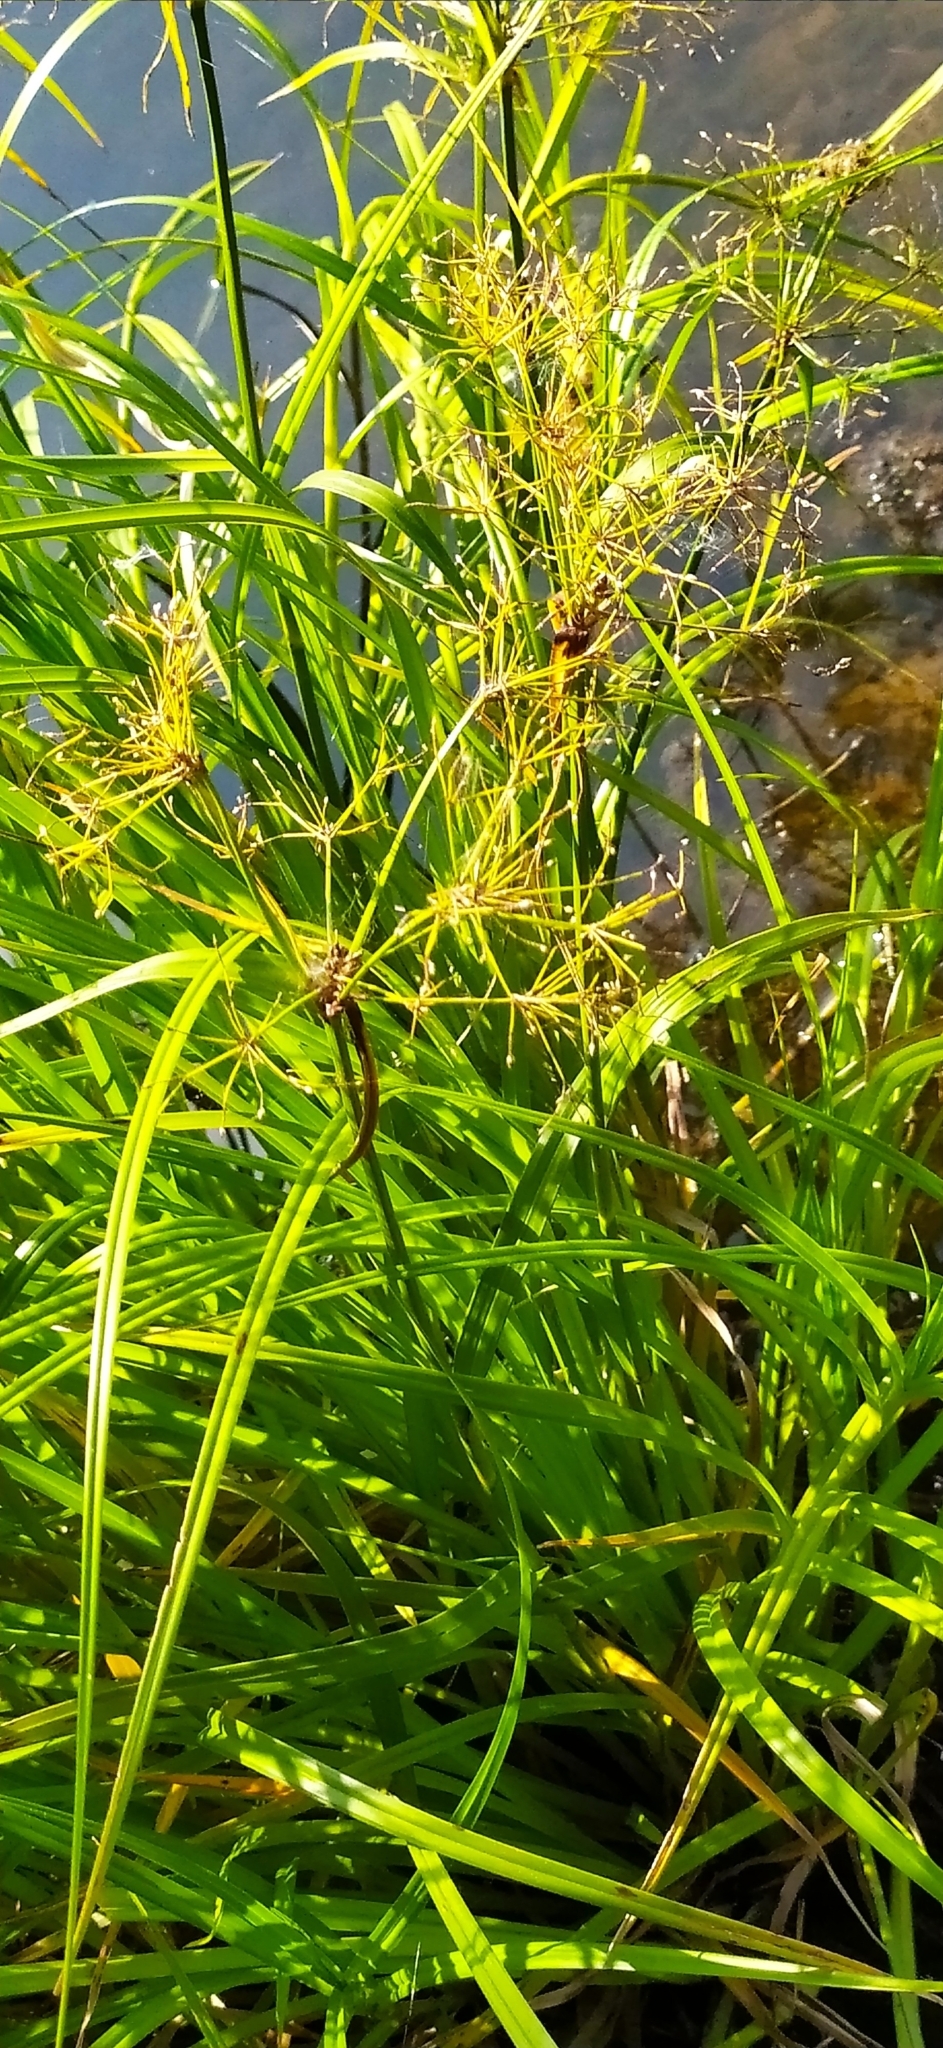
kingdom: Plantae
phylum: Tracheophyta
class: Liliopsida
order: Poales
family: Cyperaceae
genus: Scirpus
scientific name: Scirpus radicans
